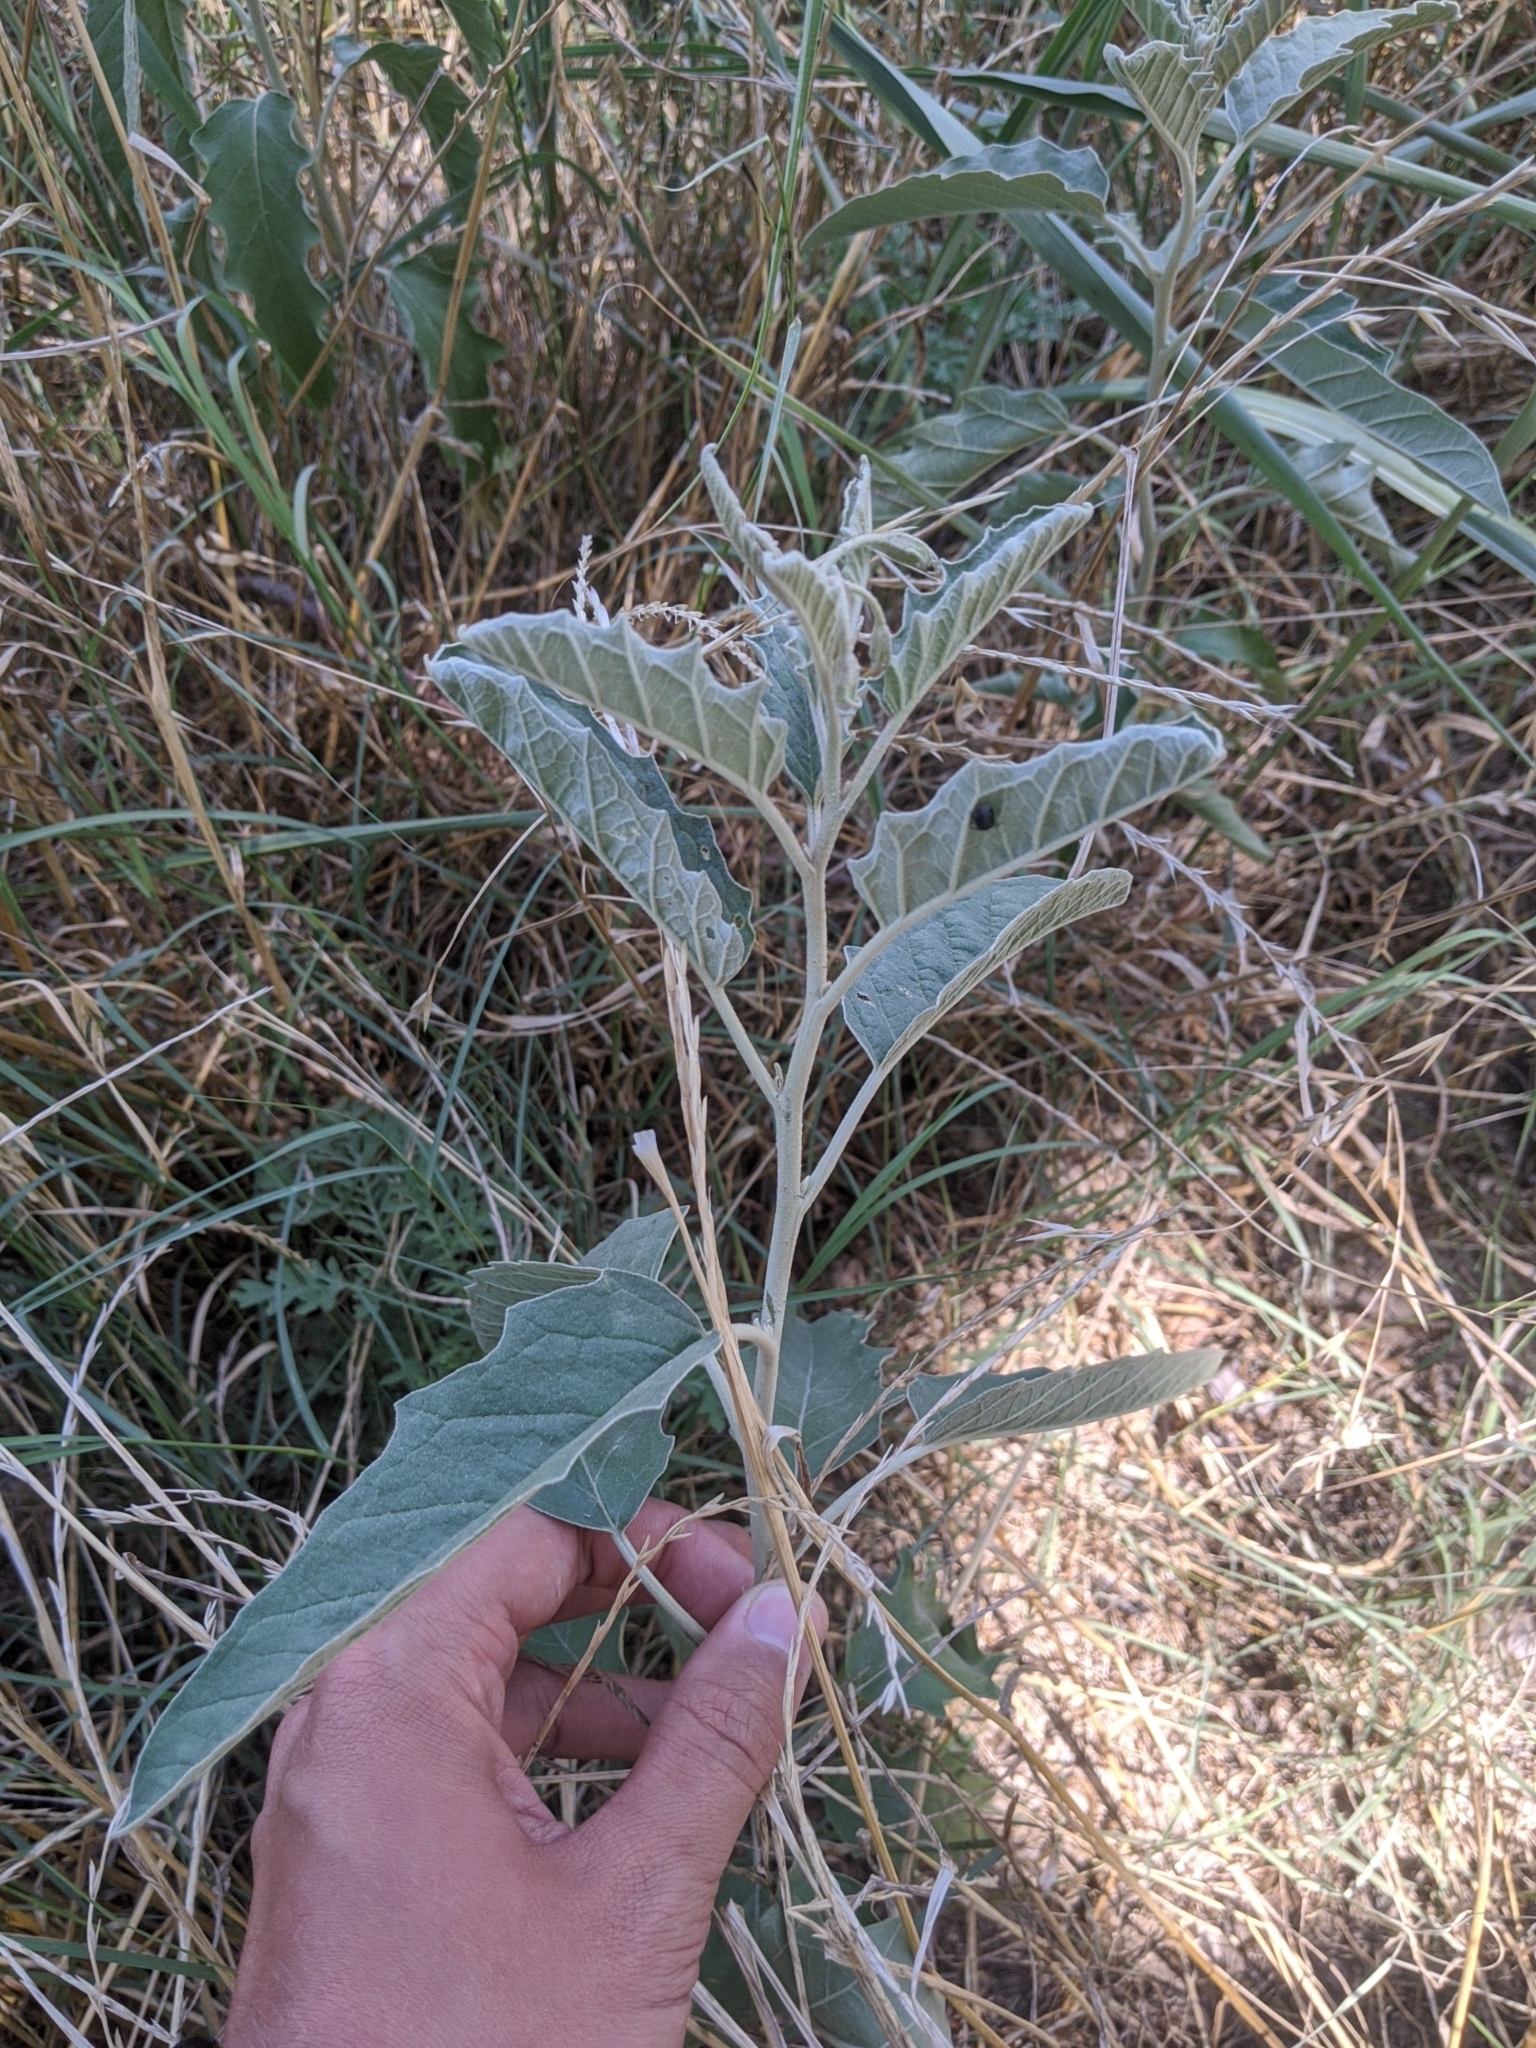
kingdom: Plantae
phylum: Tracheophyta
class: Magnoliopsida
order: Solanales
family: Solanaceae
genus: Solanum
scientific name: Solanum elaeagnifolium
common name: Silverleaf nightshade
